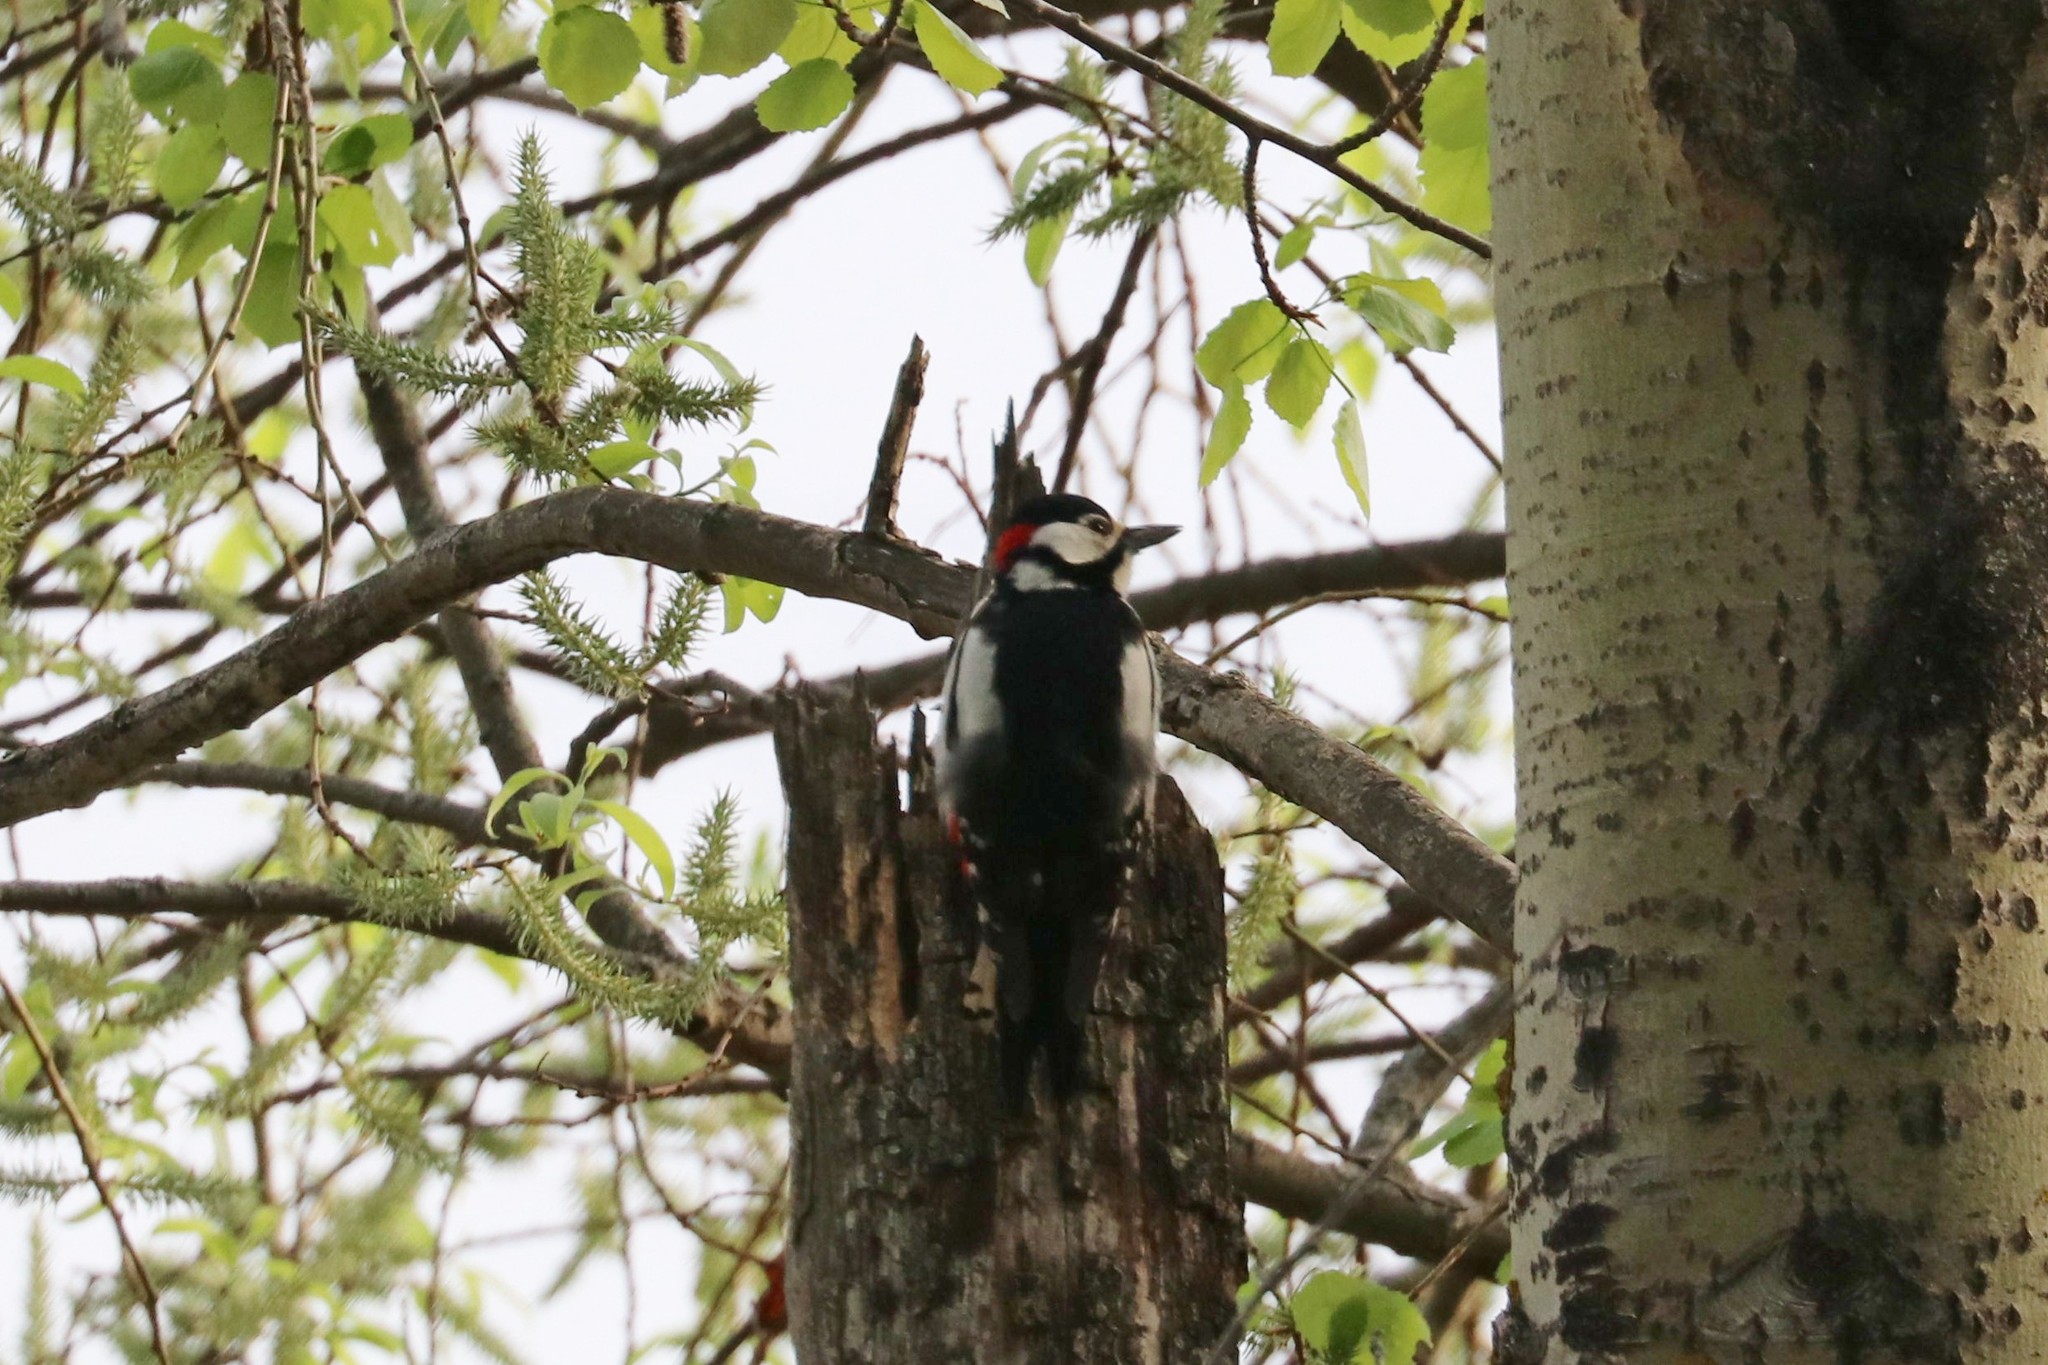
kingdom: Animalia
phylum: Chordata
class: Aves
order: Piciformes
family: Picidae
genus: Dendrocopos
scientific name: Dendrocopos major
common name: Great spotted woodpecker
